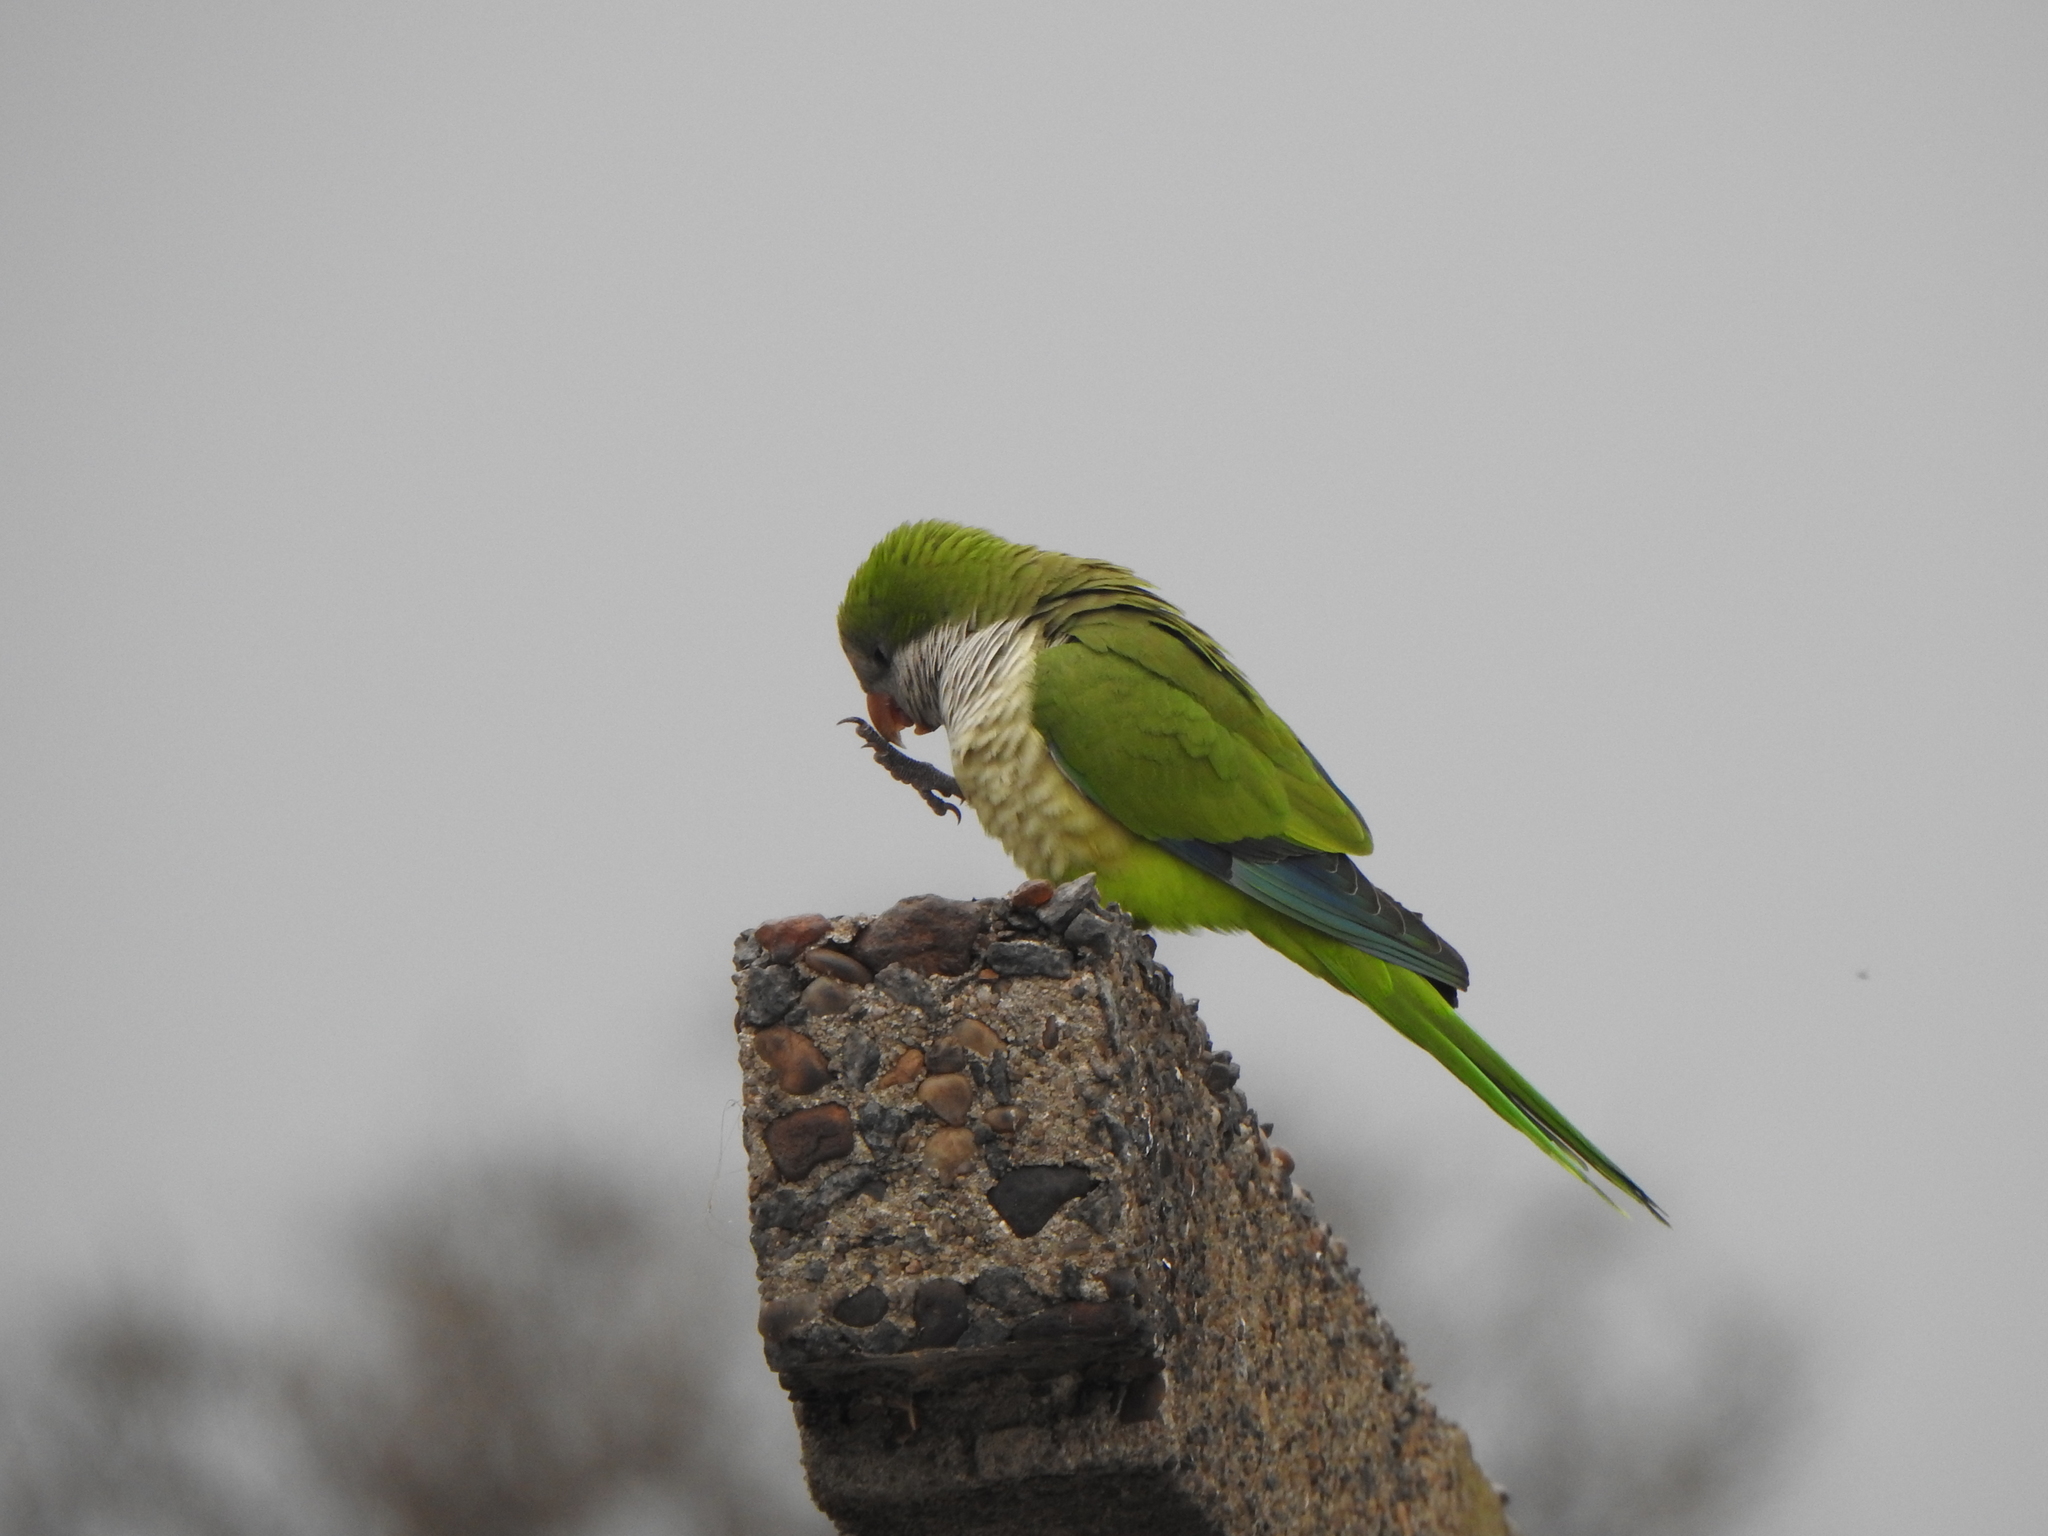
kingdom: Animalia
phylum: Chordata
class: Aves
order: Psittaciformes
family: Psittacidae
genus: Myiopsitta
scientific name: Myiopsitta monachus
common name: Monk parakeet
